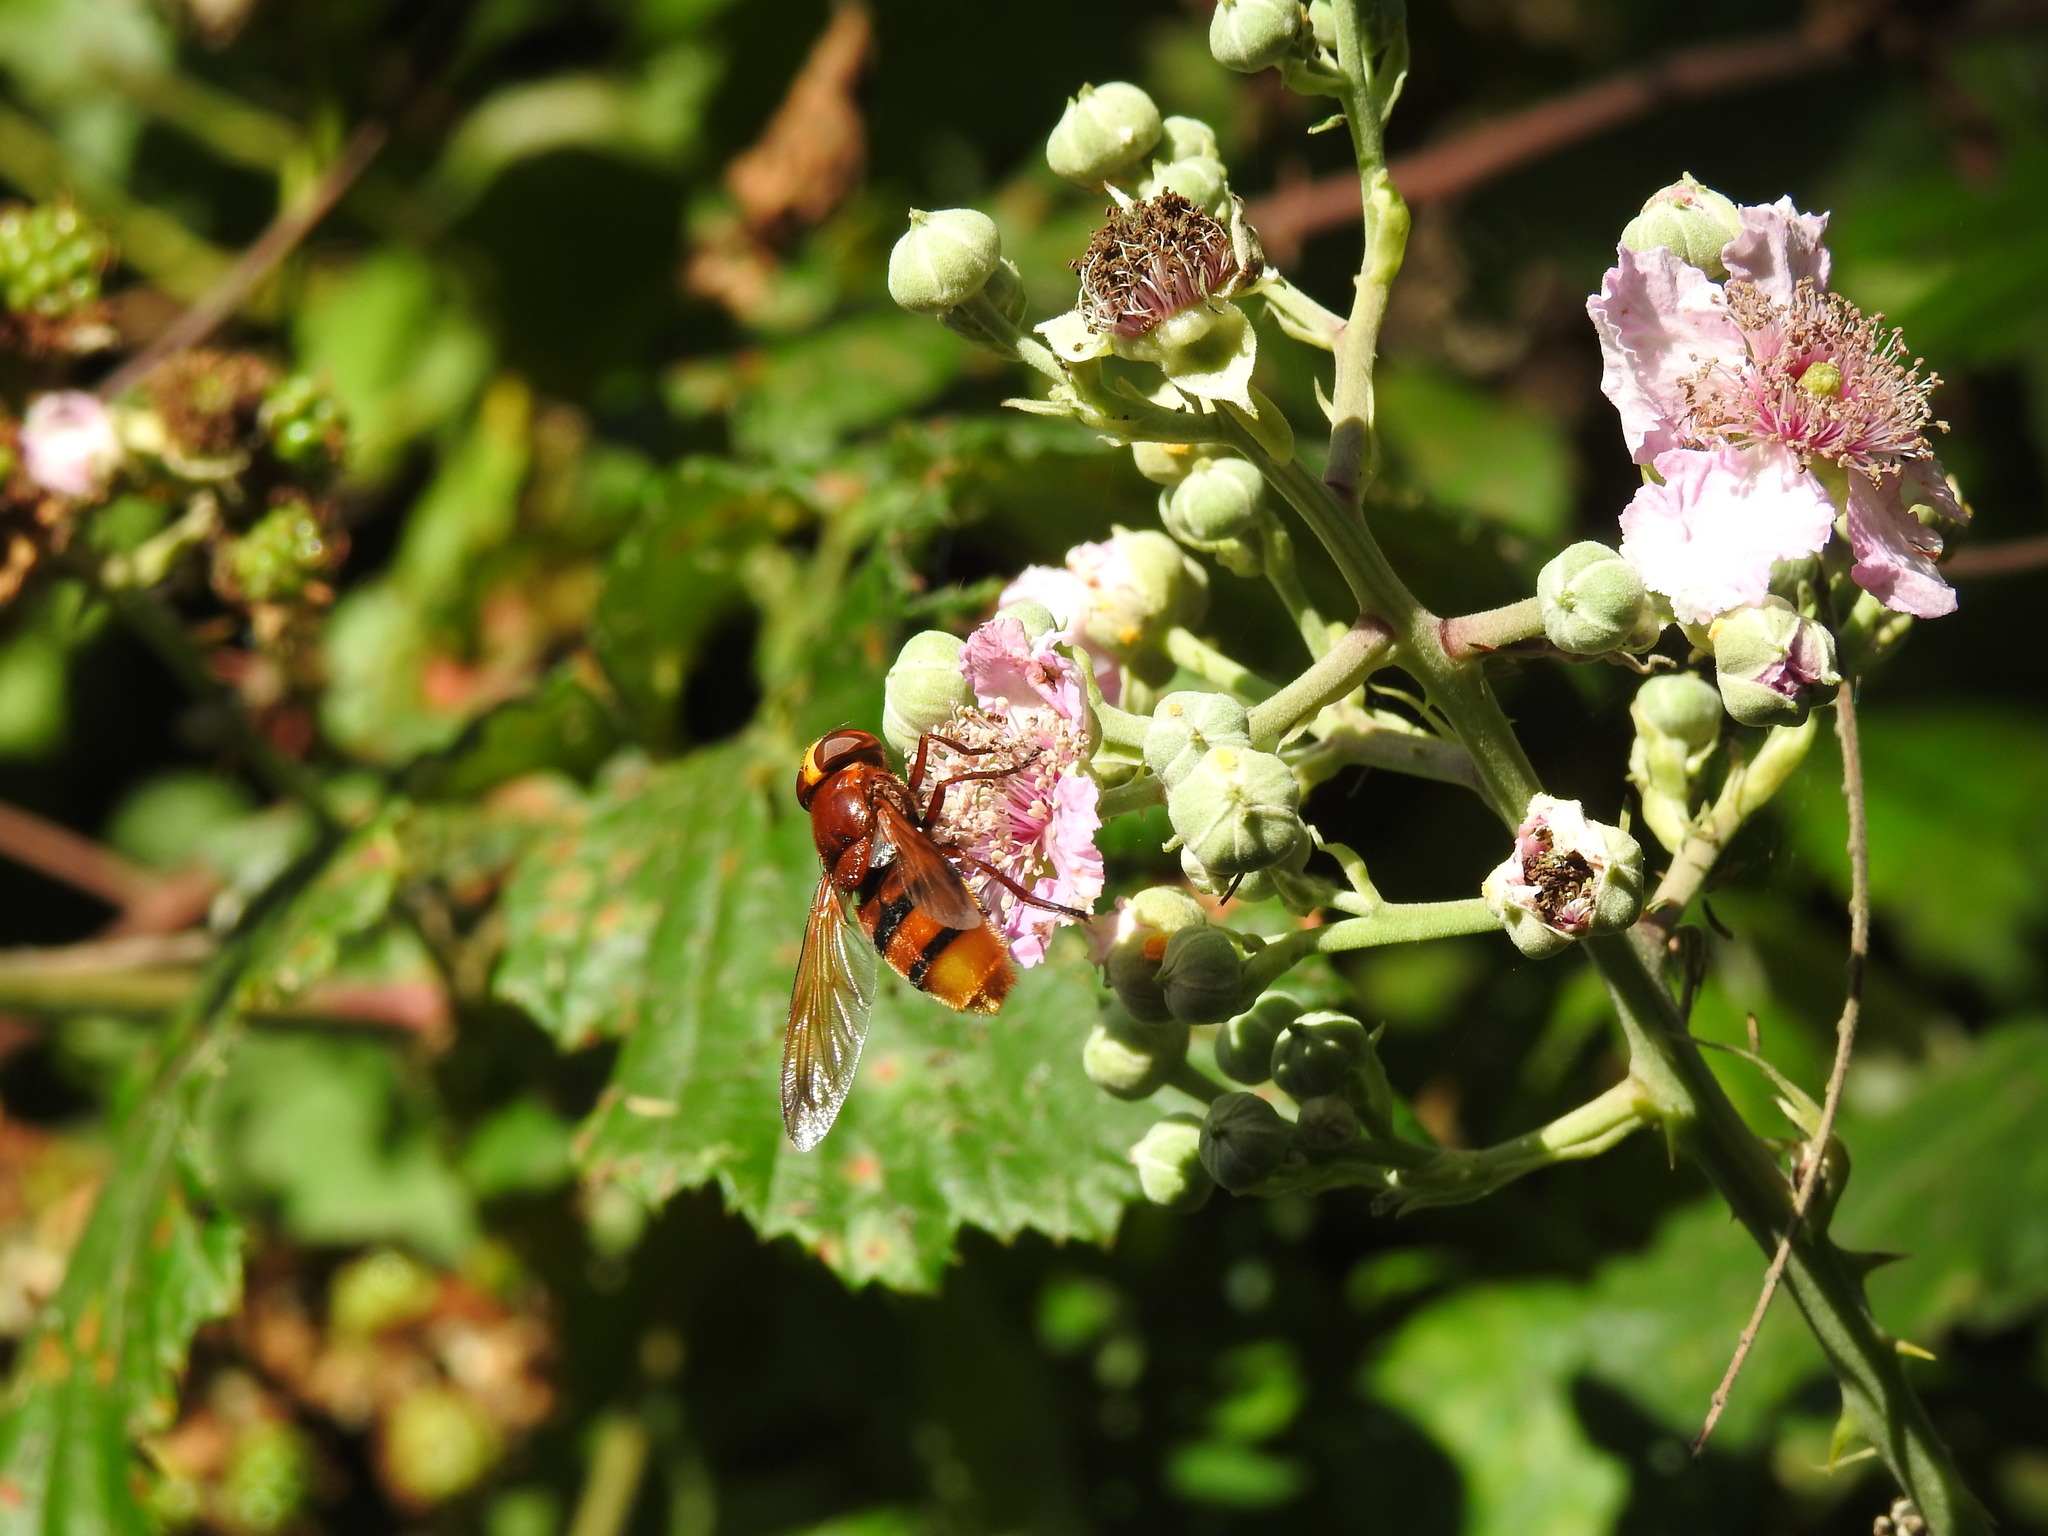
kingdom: Animalia
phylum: Arthropoda
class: Insecta
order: Diptera
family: Syrphidae
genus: Volucella
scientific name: Volucella zonaria
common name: Hornet hoverfly
